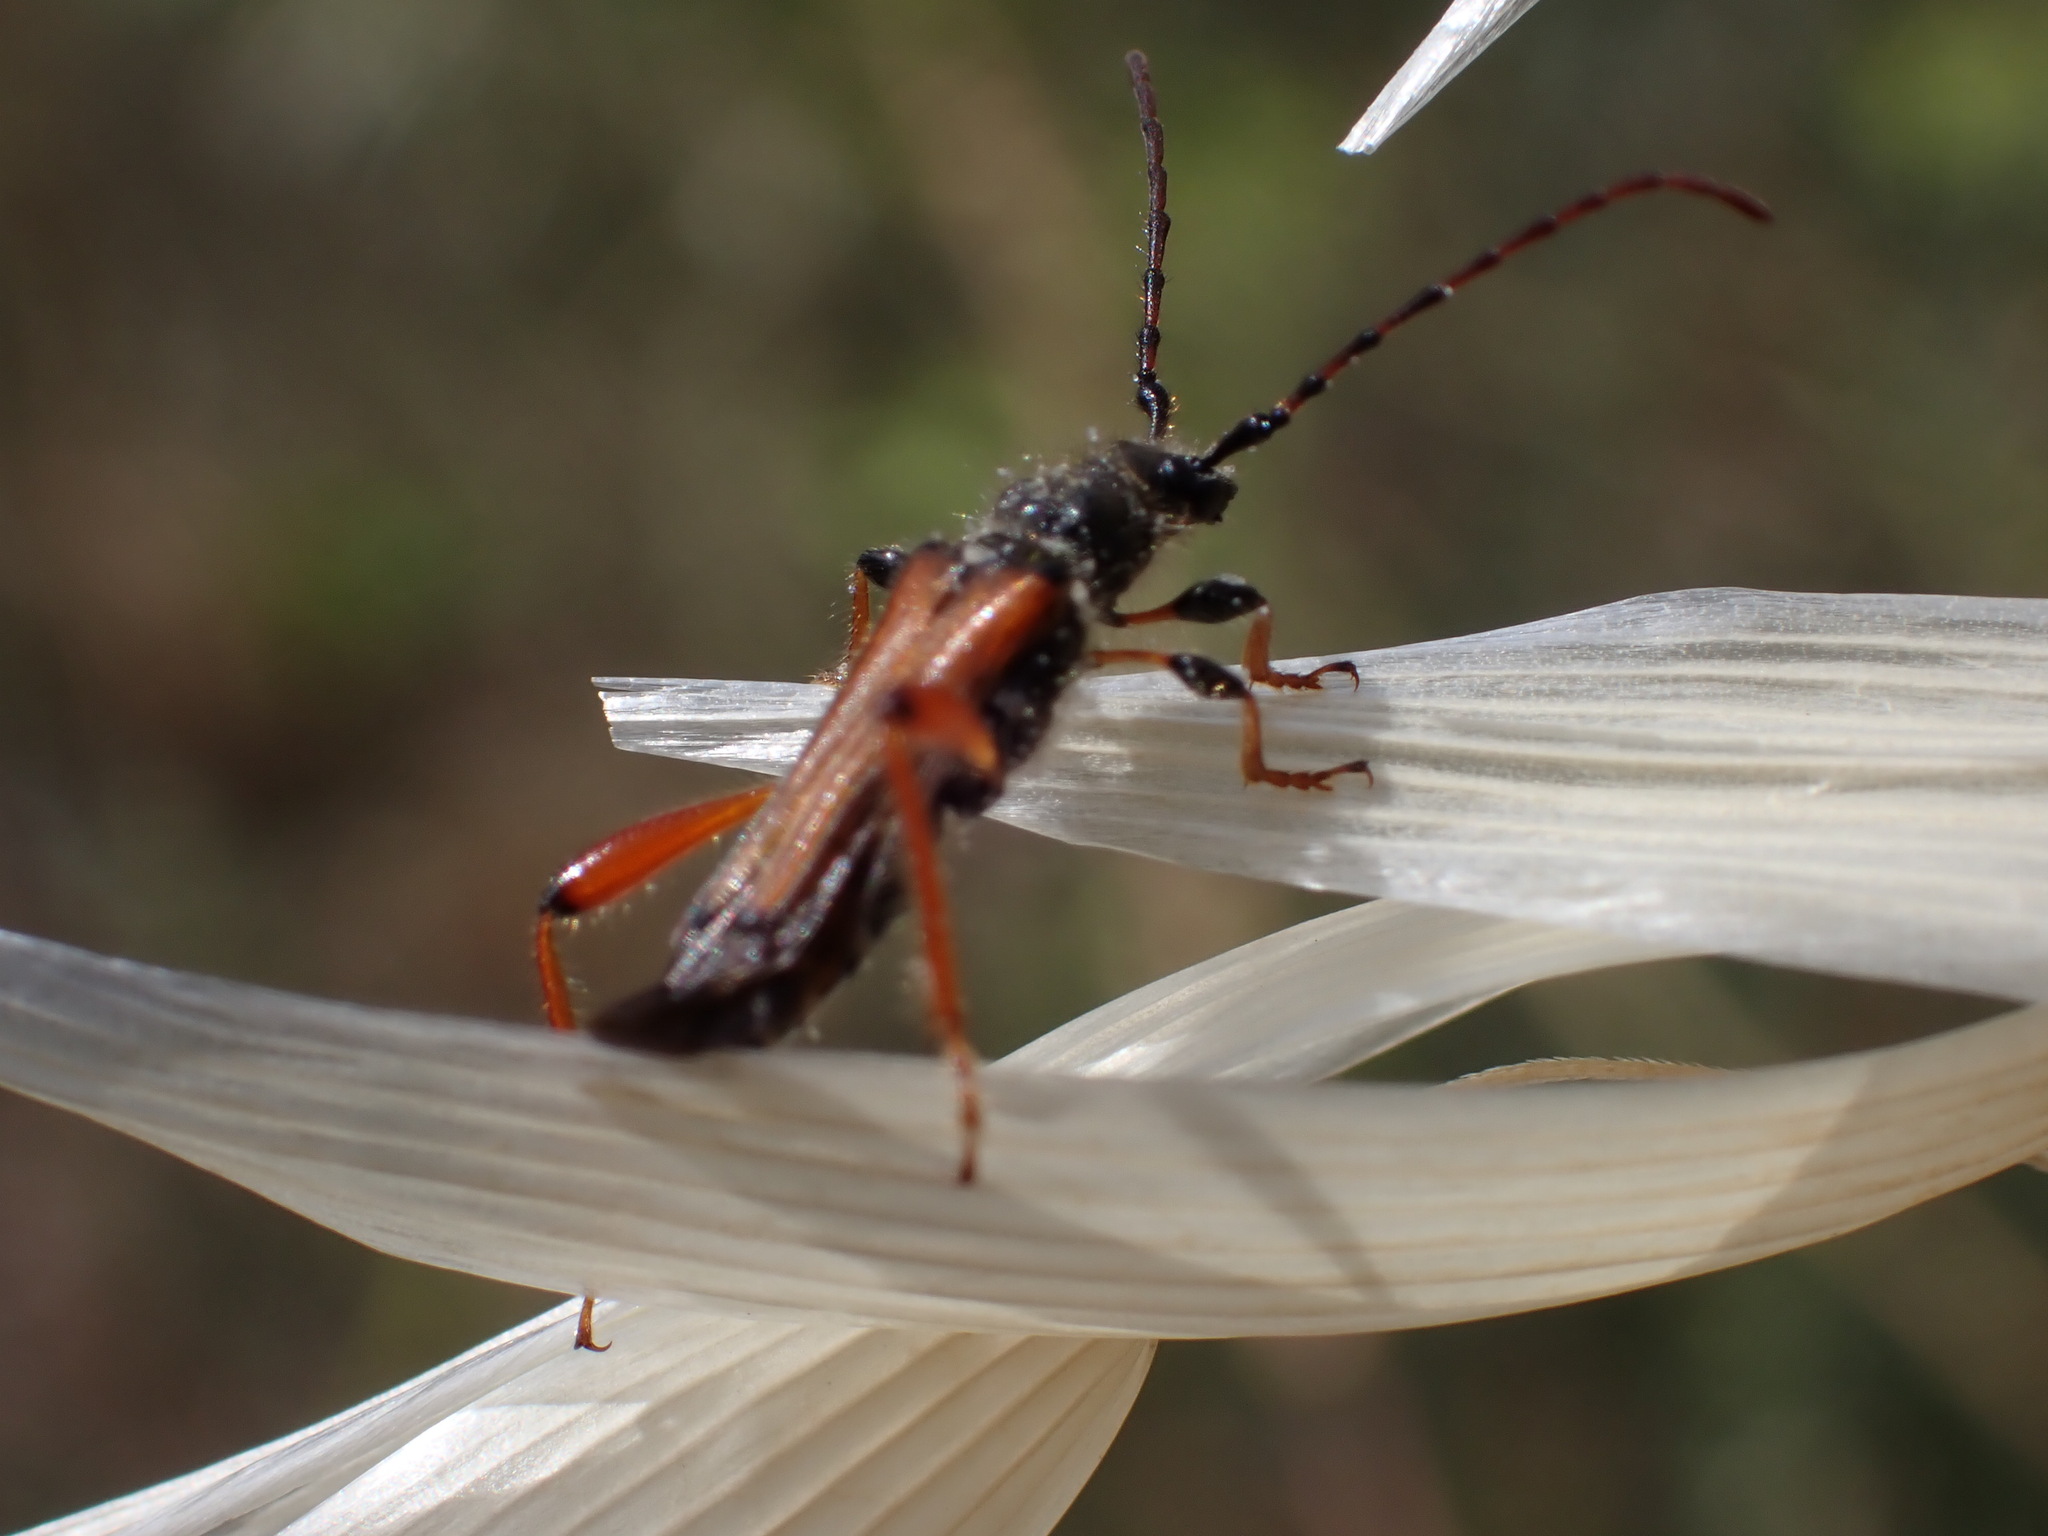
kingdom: Animalia
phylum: Arthropoda
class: Insecta
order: Coleoptera
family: Cerambycidae
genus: Stenopterus
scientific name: Stenopterus rufus
